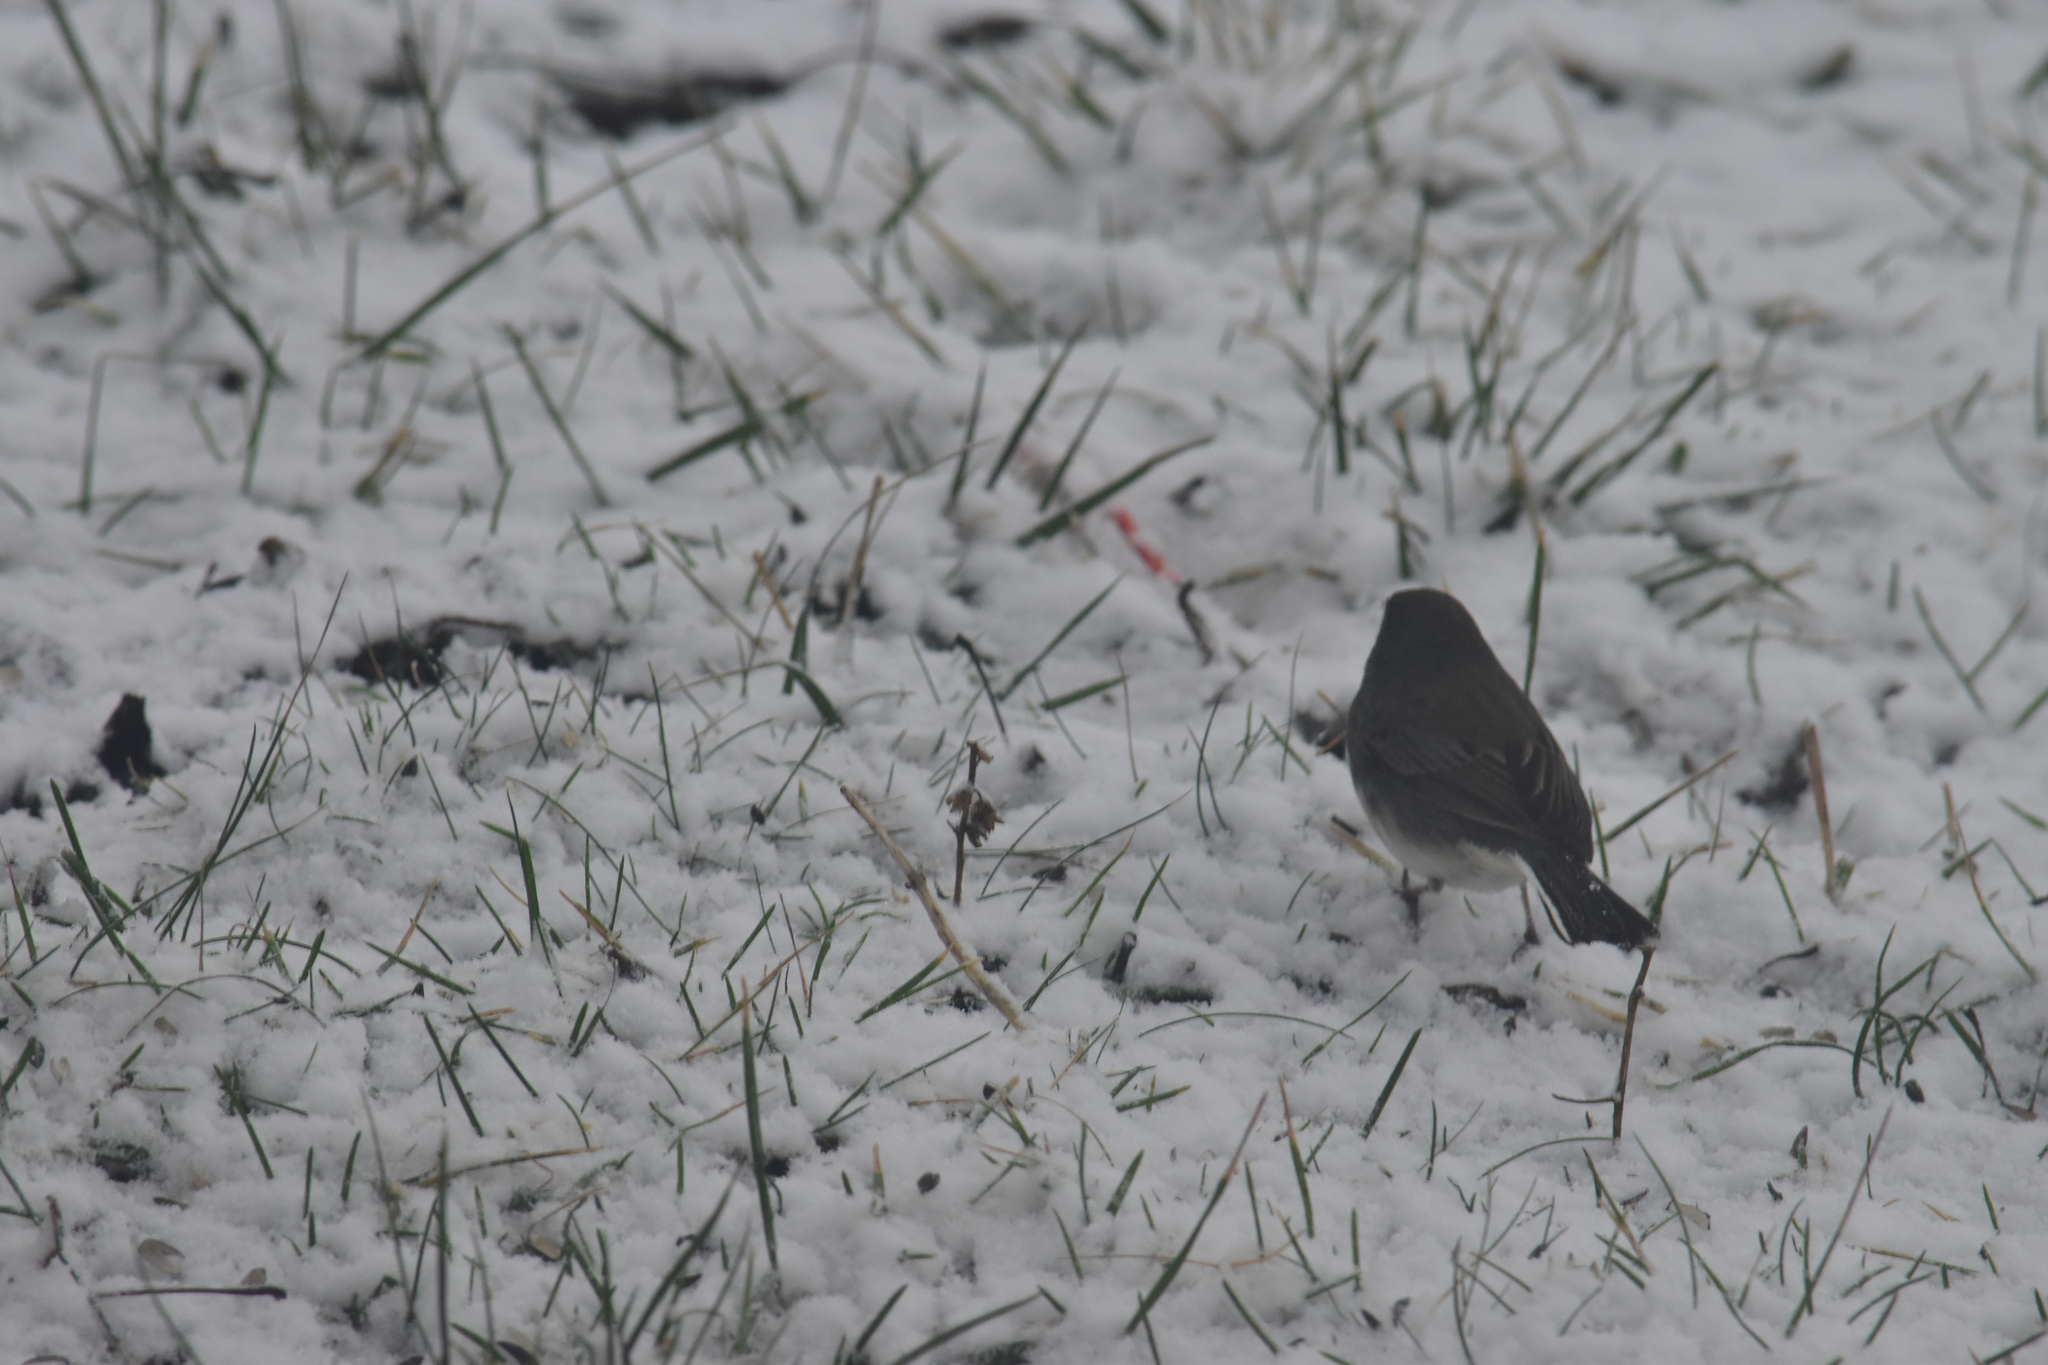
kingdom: Animalia
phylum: Chordata
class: Aves
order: Passeriformes
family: Passerellidae
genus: Junco
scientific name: Junco hyemalis
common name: Dark-eyed junco
